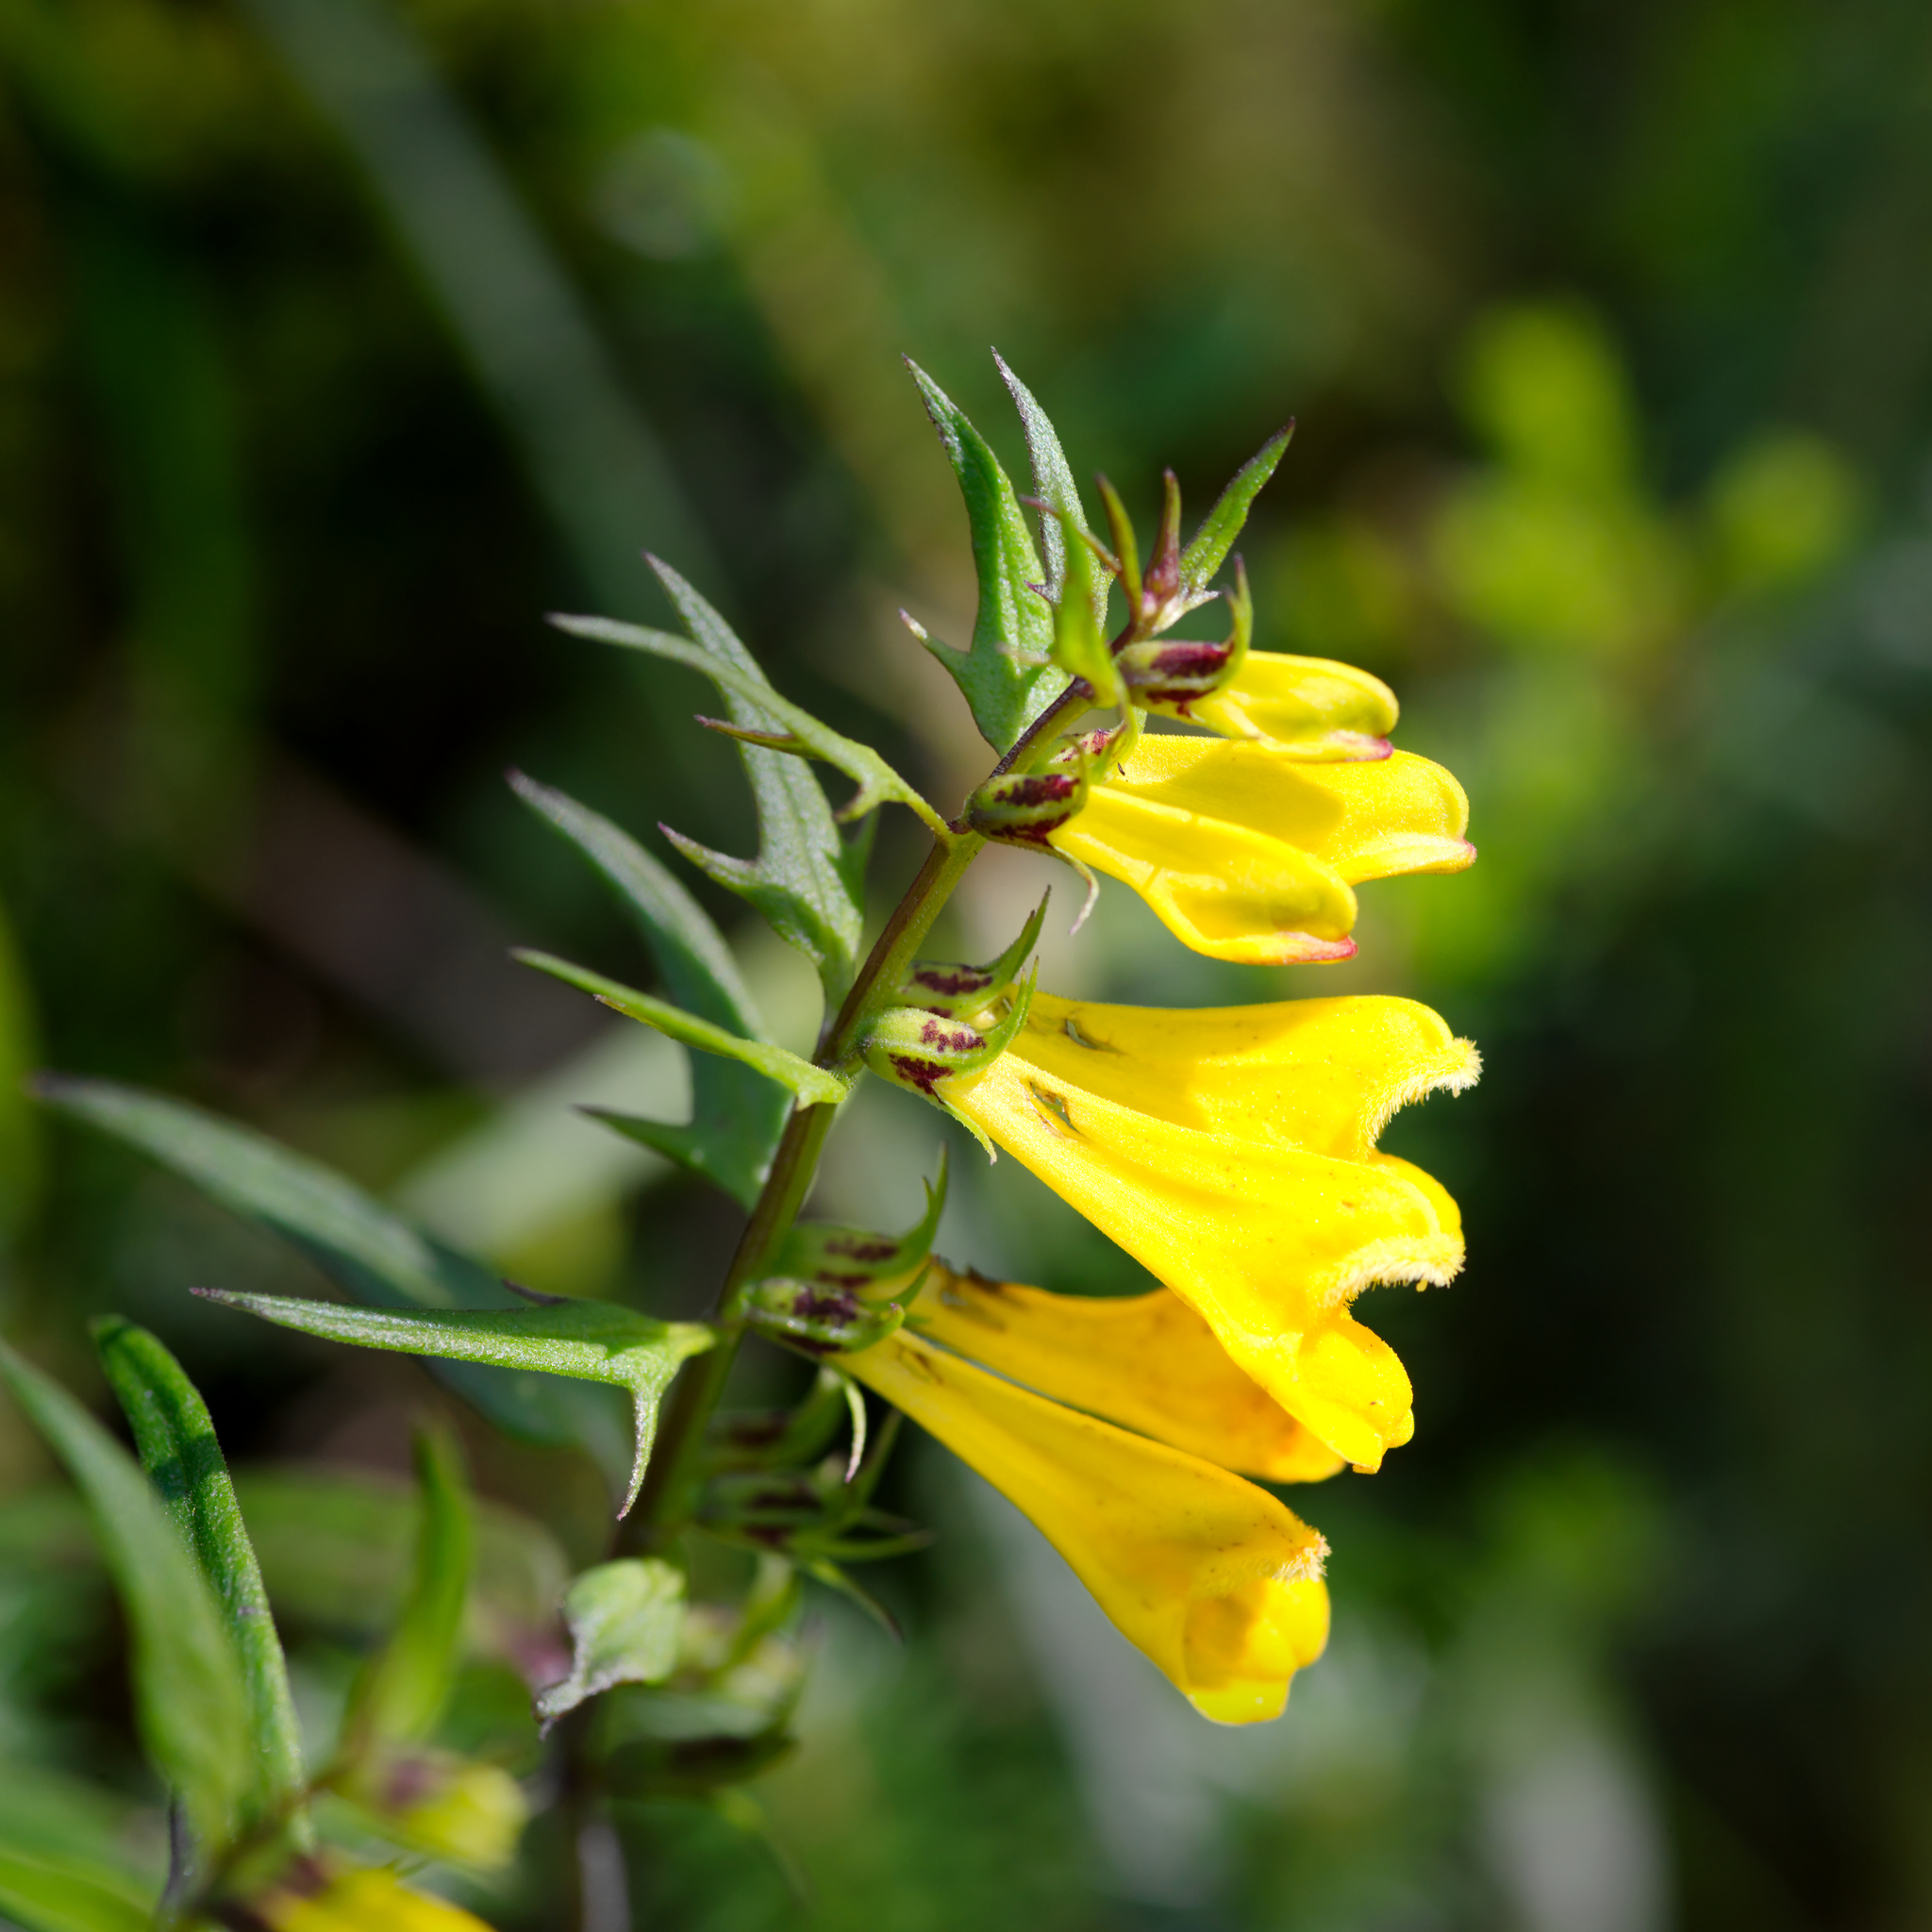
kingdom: Plantae
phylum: Tracheophyta
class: Magnoliopsida
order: Lamiales
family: Orobanchaceae
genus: Melampyrum
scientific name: Melampyrum pratense
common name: Common cow-wheat
